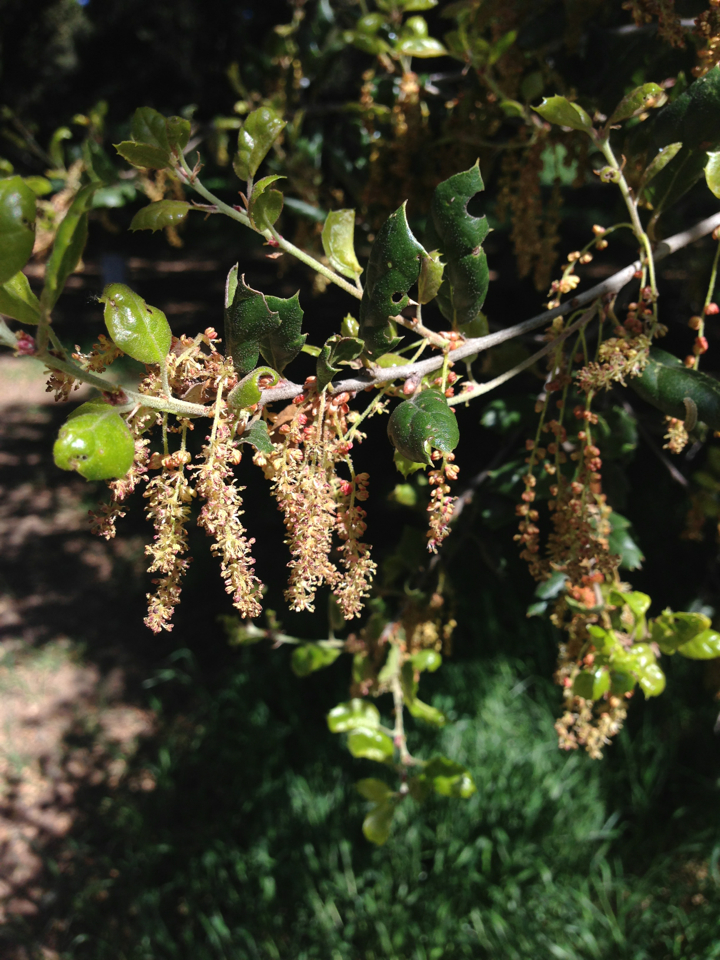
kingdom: Plantae
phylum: Tracheophyta
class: Magnoliopsida
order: Fagales
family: Fagaceae
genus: Quercus
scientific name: Quercus agrifolia
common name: California live oak
